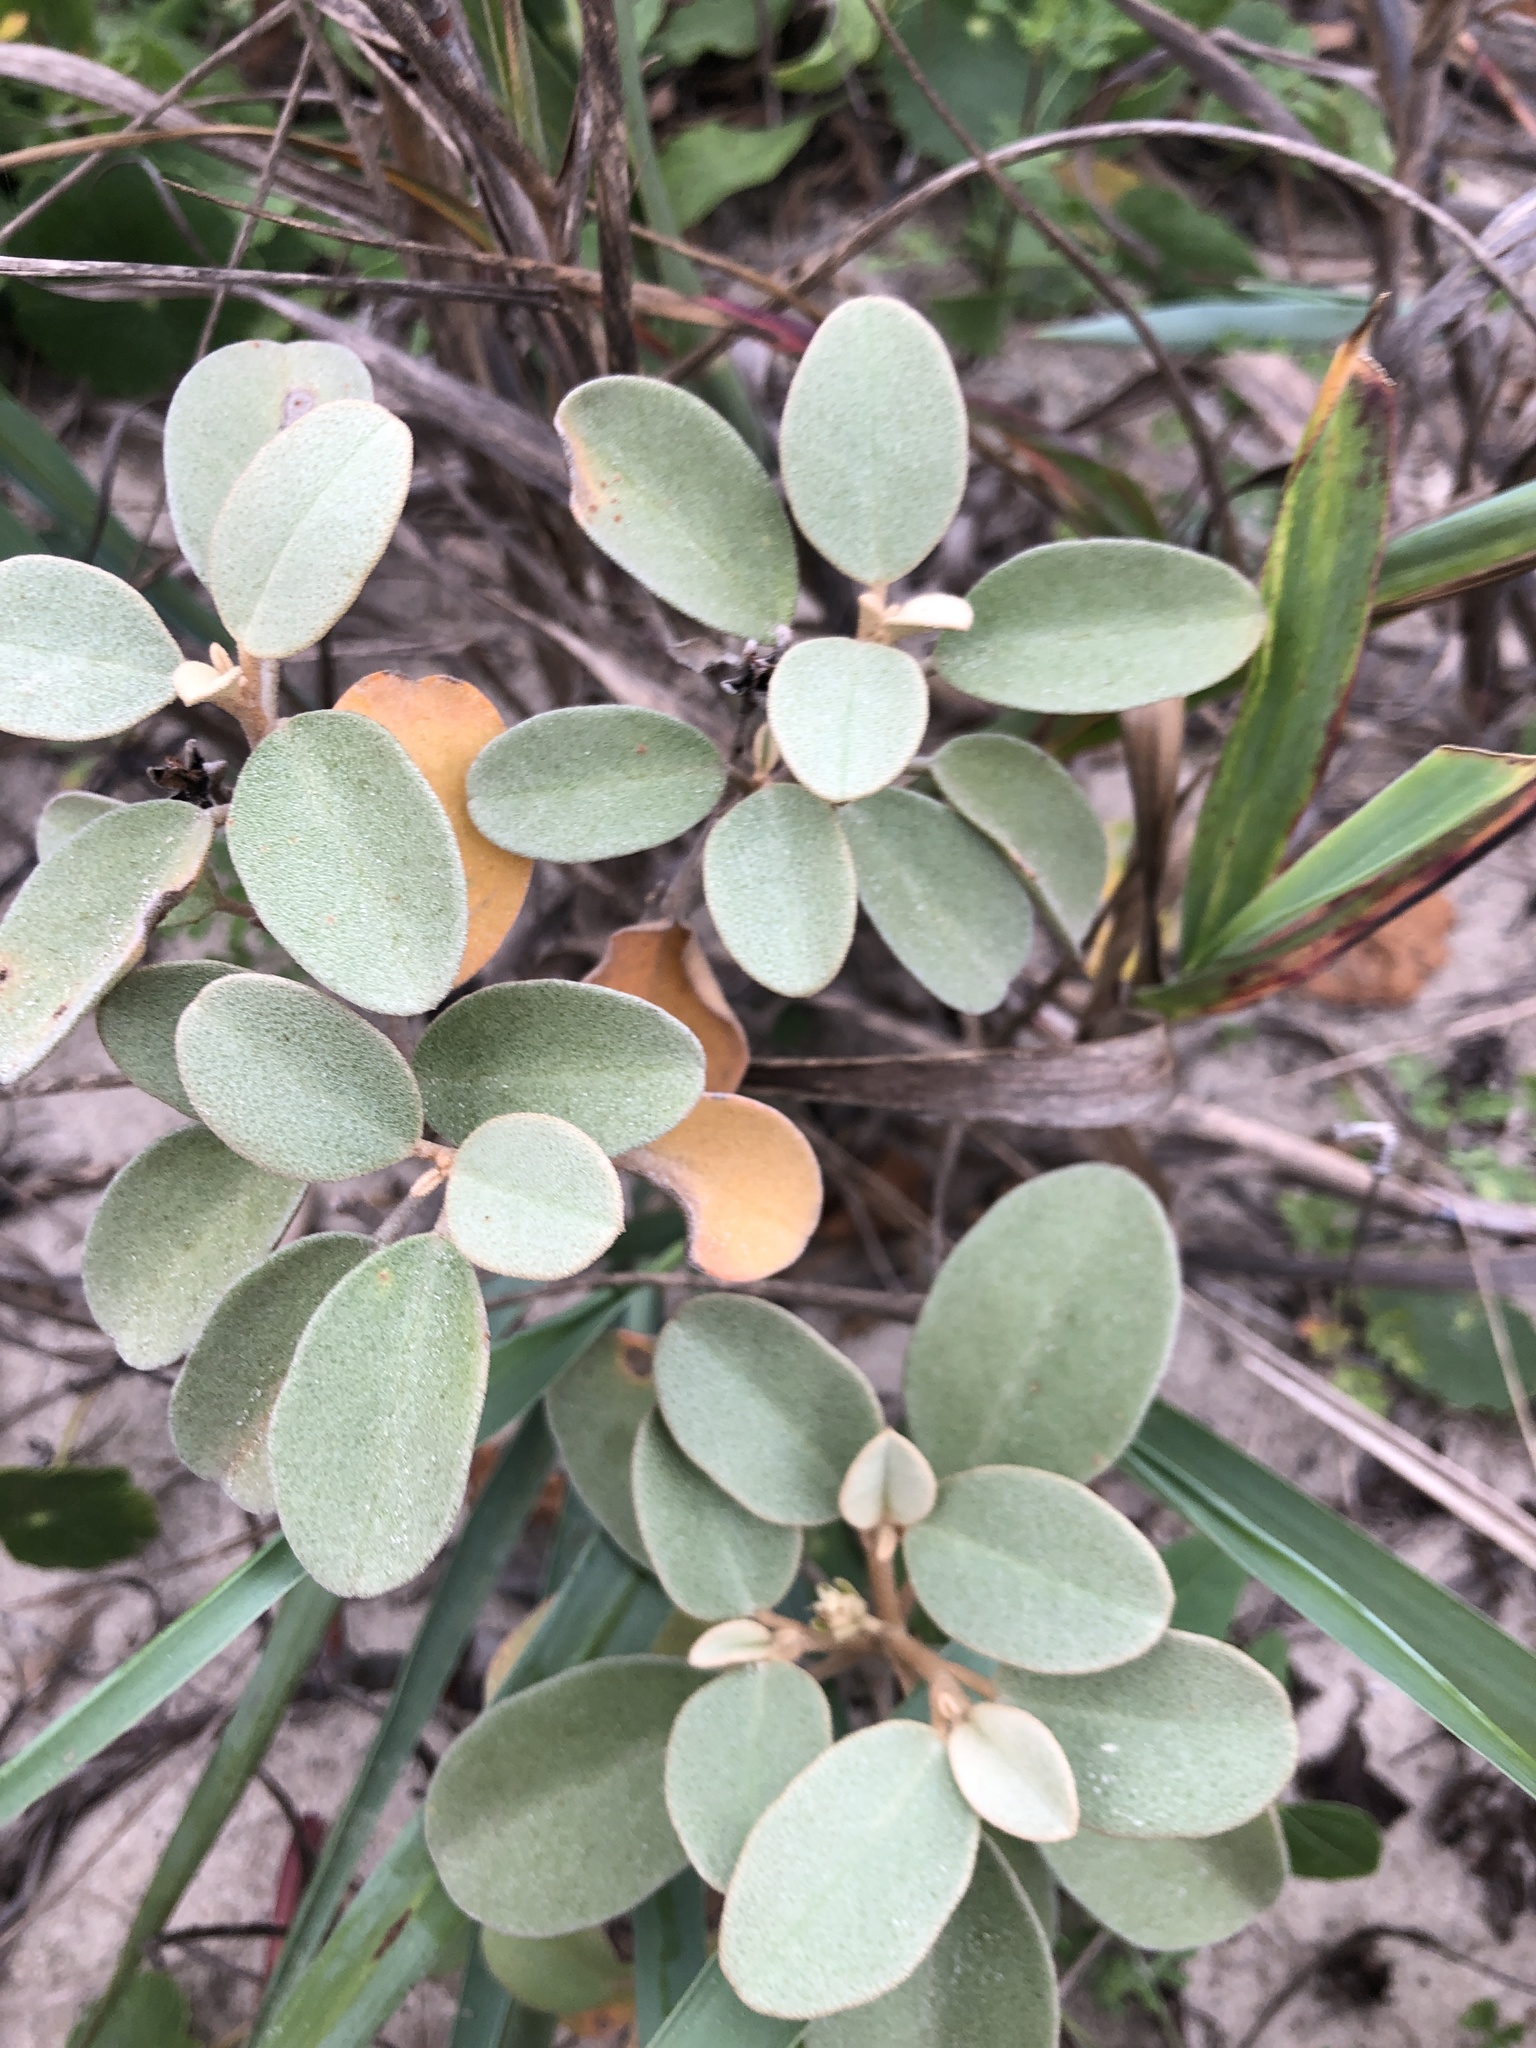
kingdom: Plantae
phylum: Tracheophyta
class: Magnoliopsida
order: Malpighiales
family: Euphorbiaceae
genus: Croton
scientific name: Croton punctatus
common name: Beach-tea
